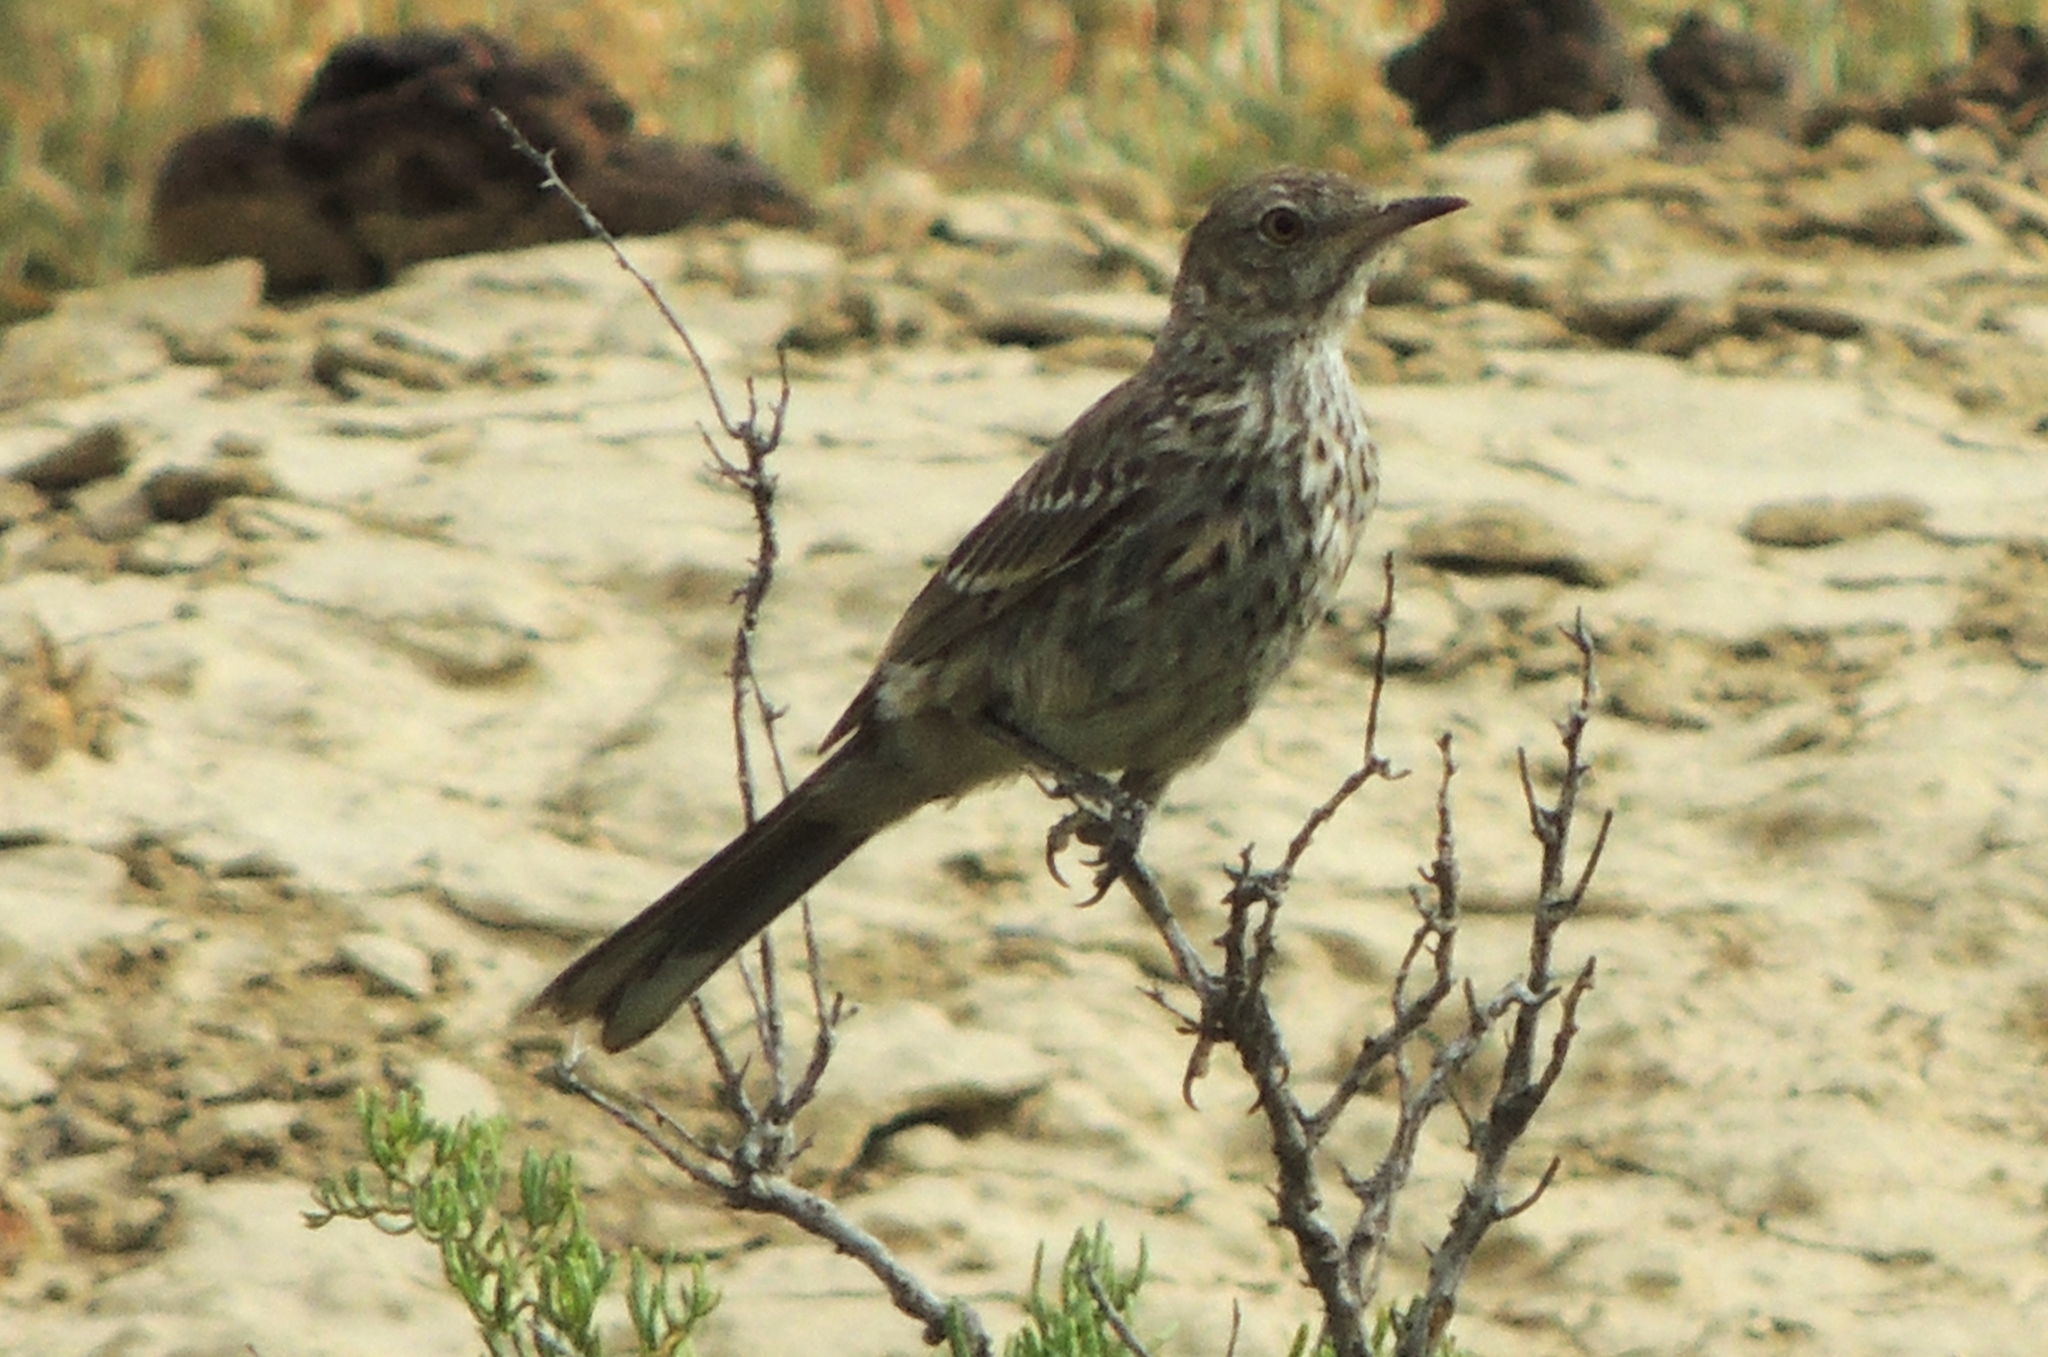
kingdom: Animalia
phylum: Chordata
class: Aves
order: Passeriformes
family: Mimidae
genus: Oreoscoptes
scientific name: Oreoscoptes montanus
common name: Sage thrasher
